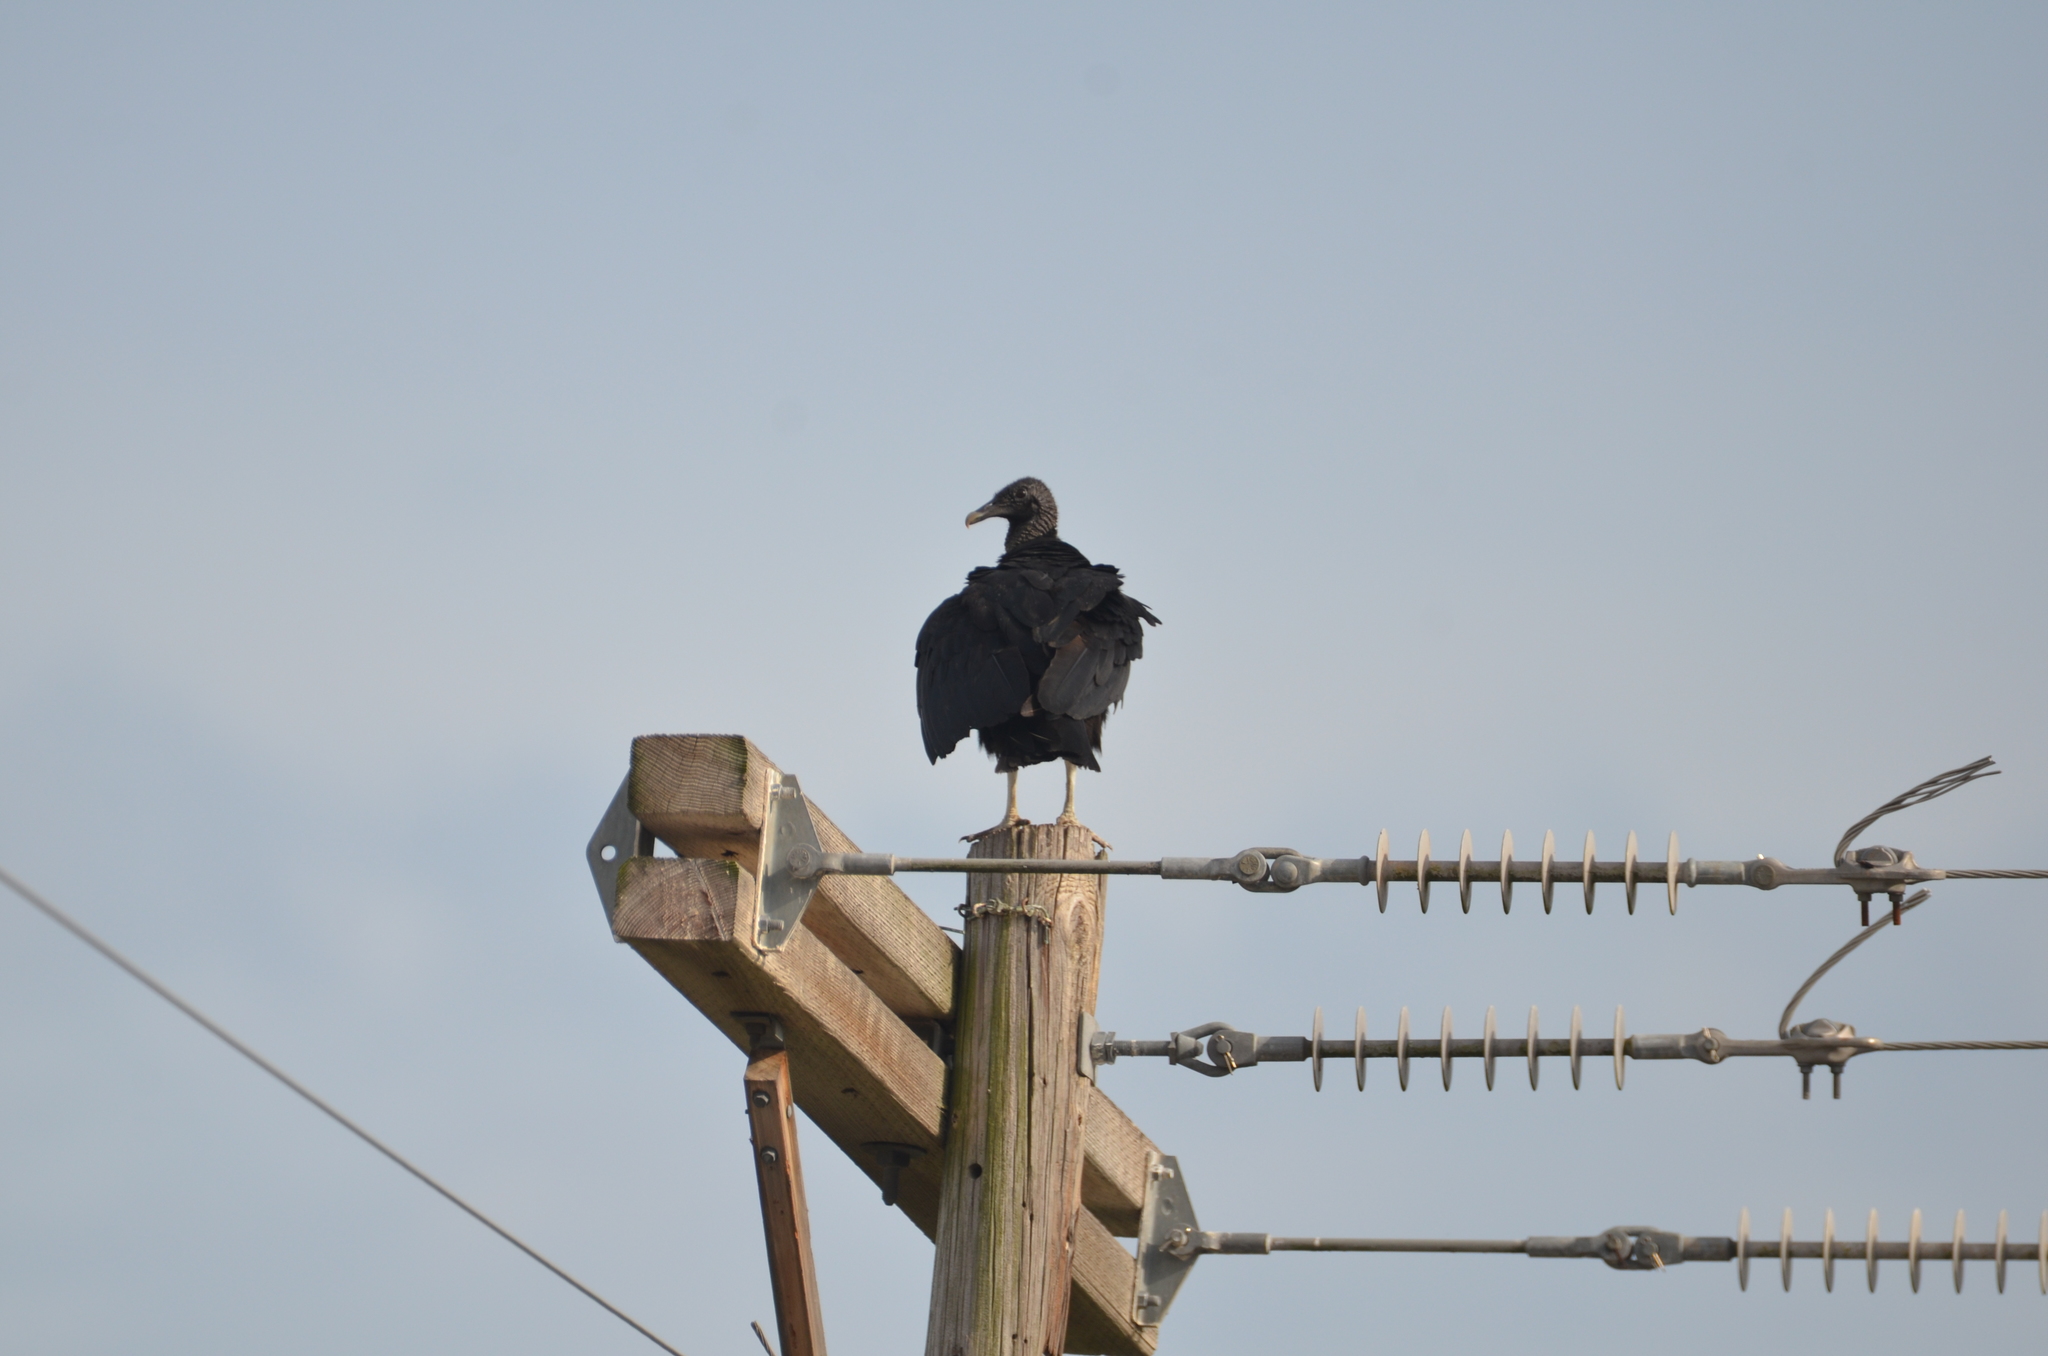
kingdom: Animalia
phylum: Chordata
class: Aves
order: Accipitriformes
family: Cathartidae
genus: Coragyps
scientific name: Coragyps atratus
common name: Black vulture
